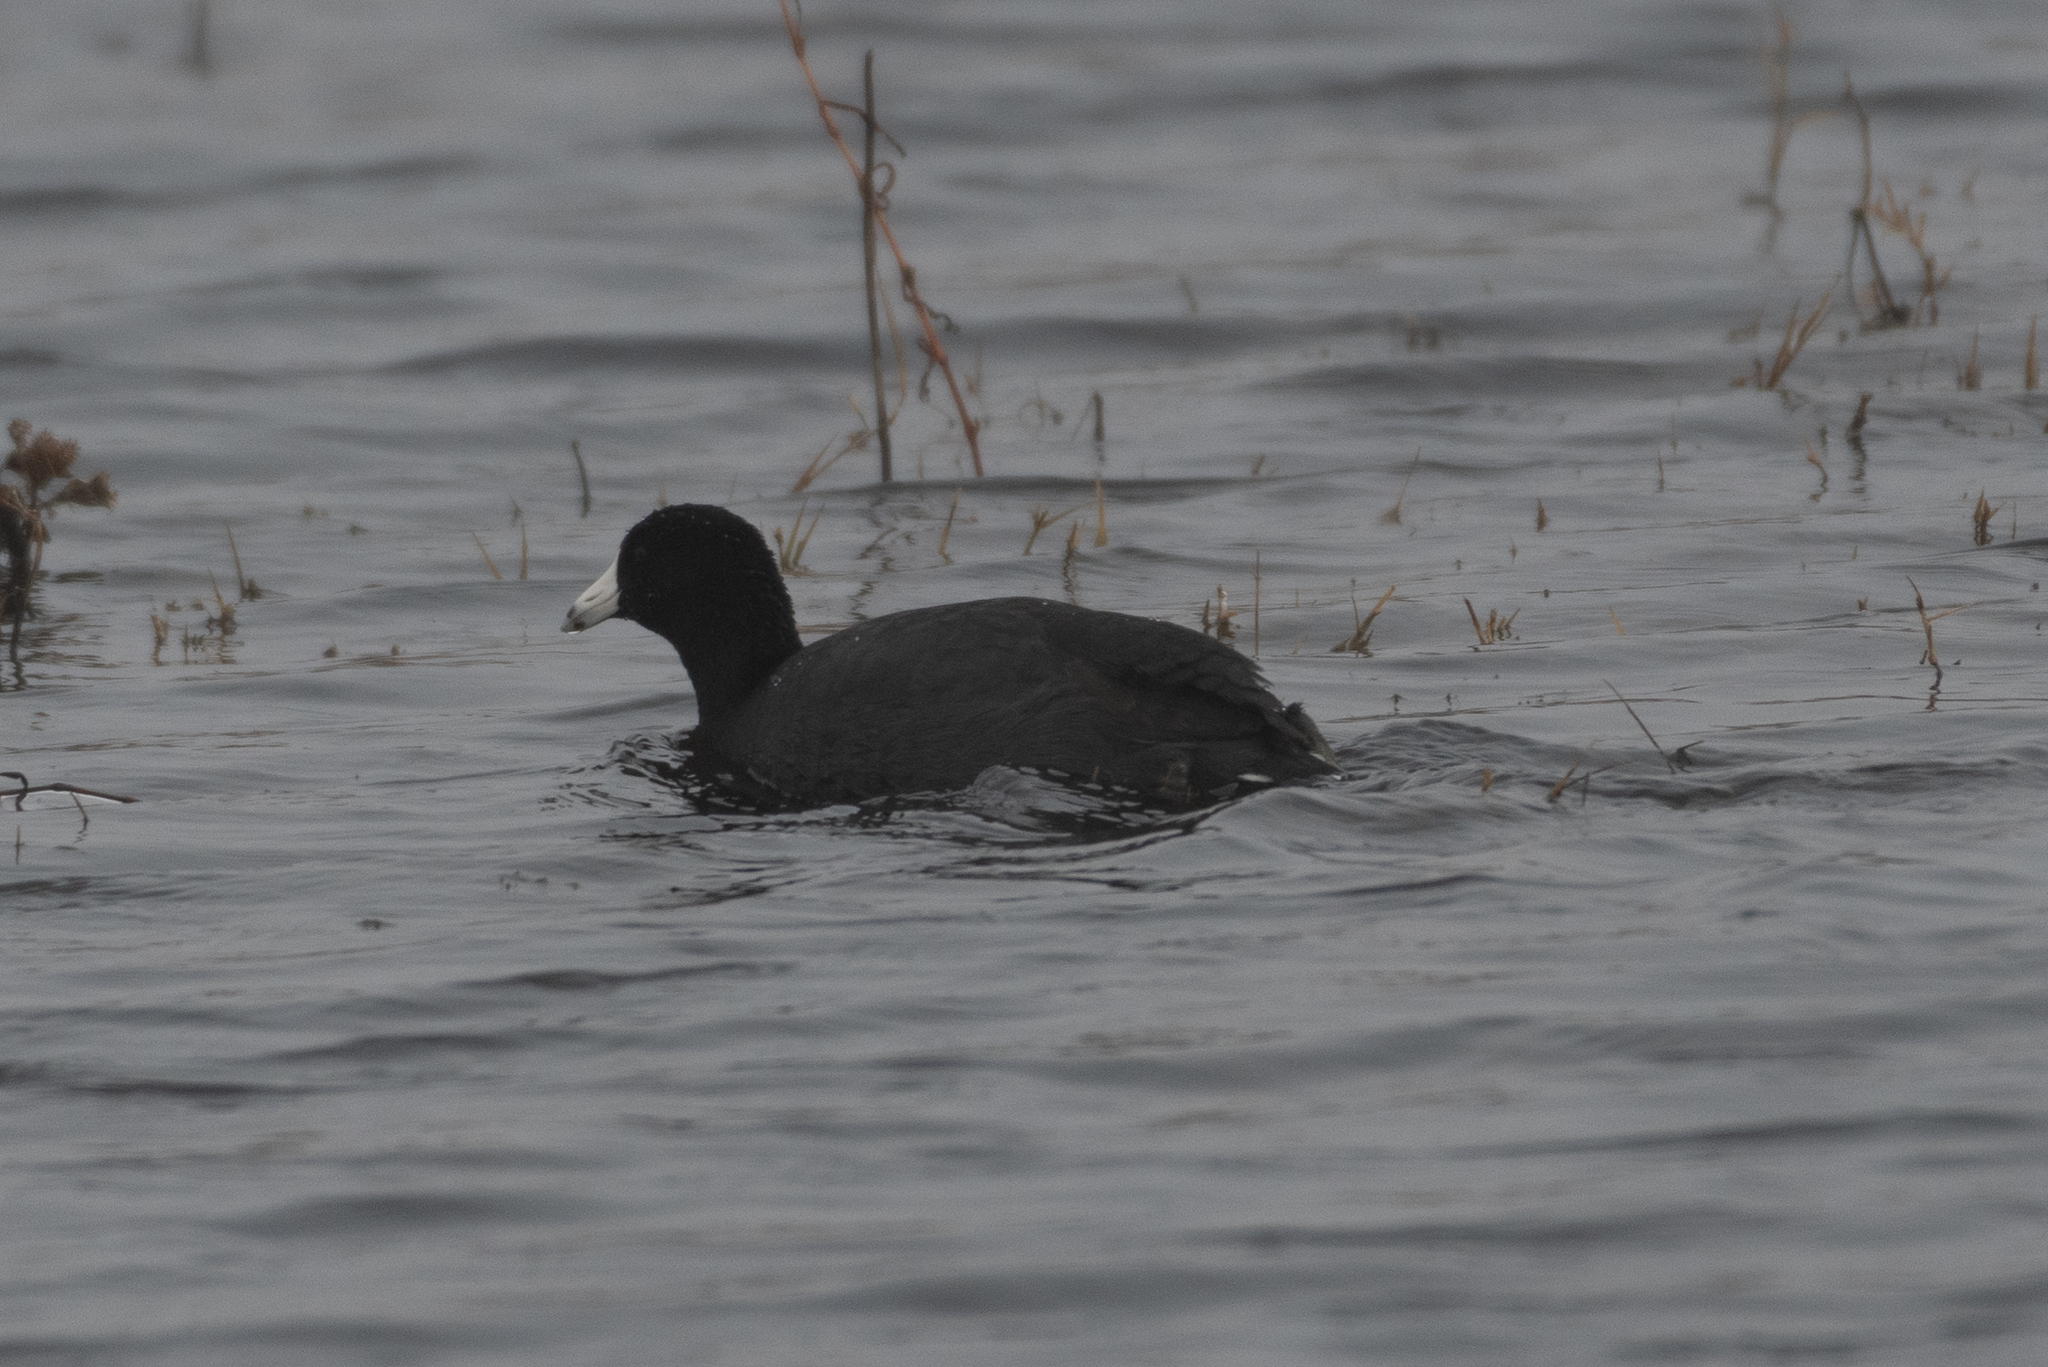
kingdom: Animalia
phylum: Chordata
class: Aves
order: Gruiformes
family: Rallidae
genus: Fulica
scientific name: Fulica americana
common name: American coot
